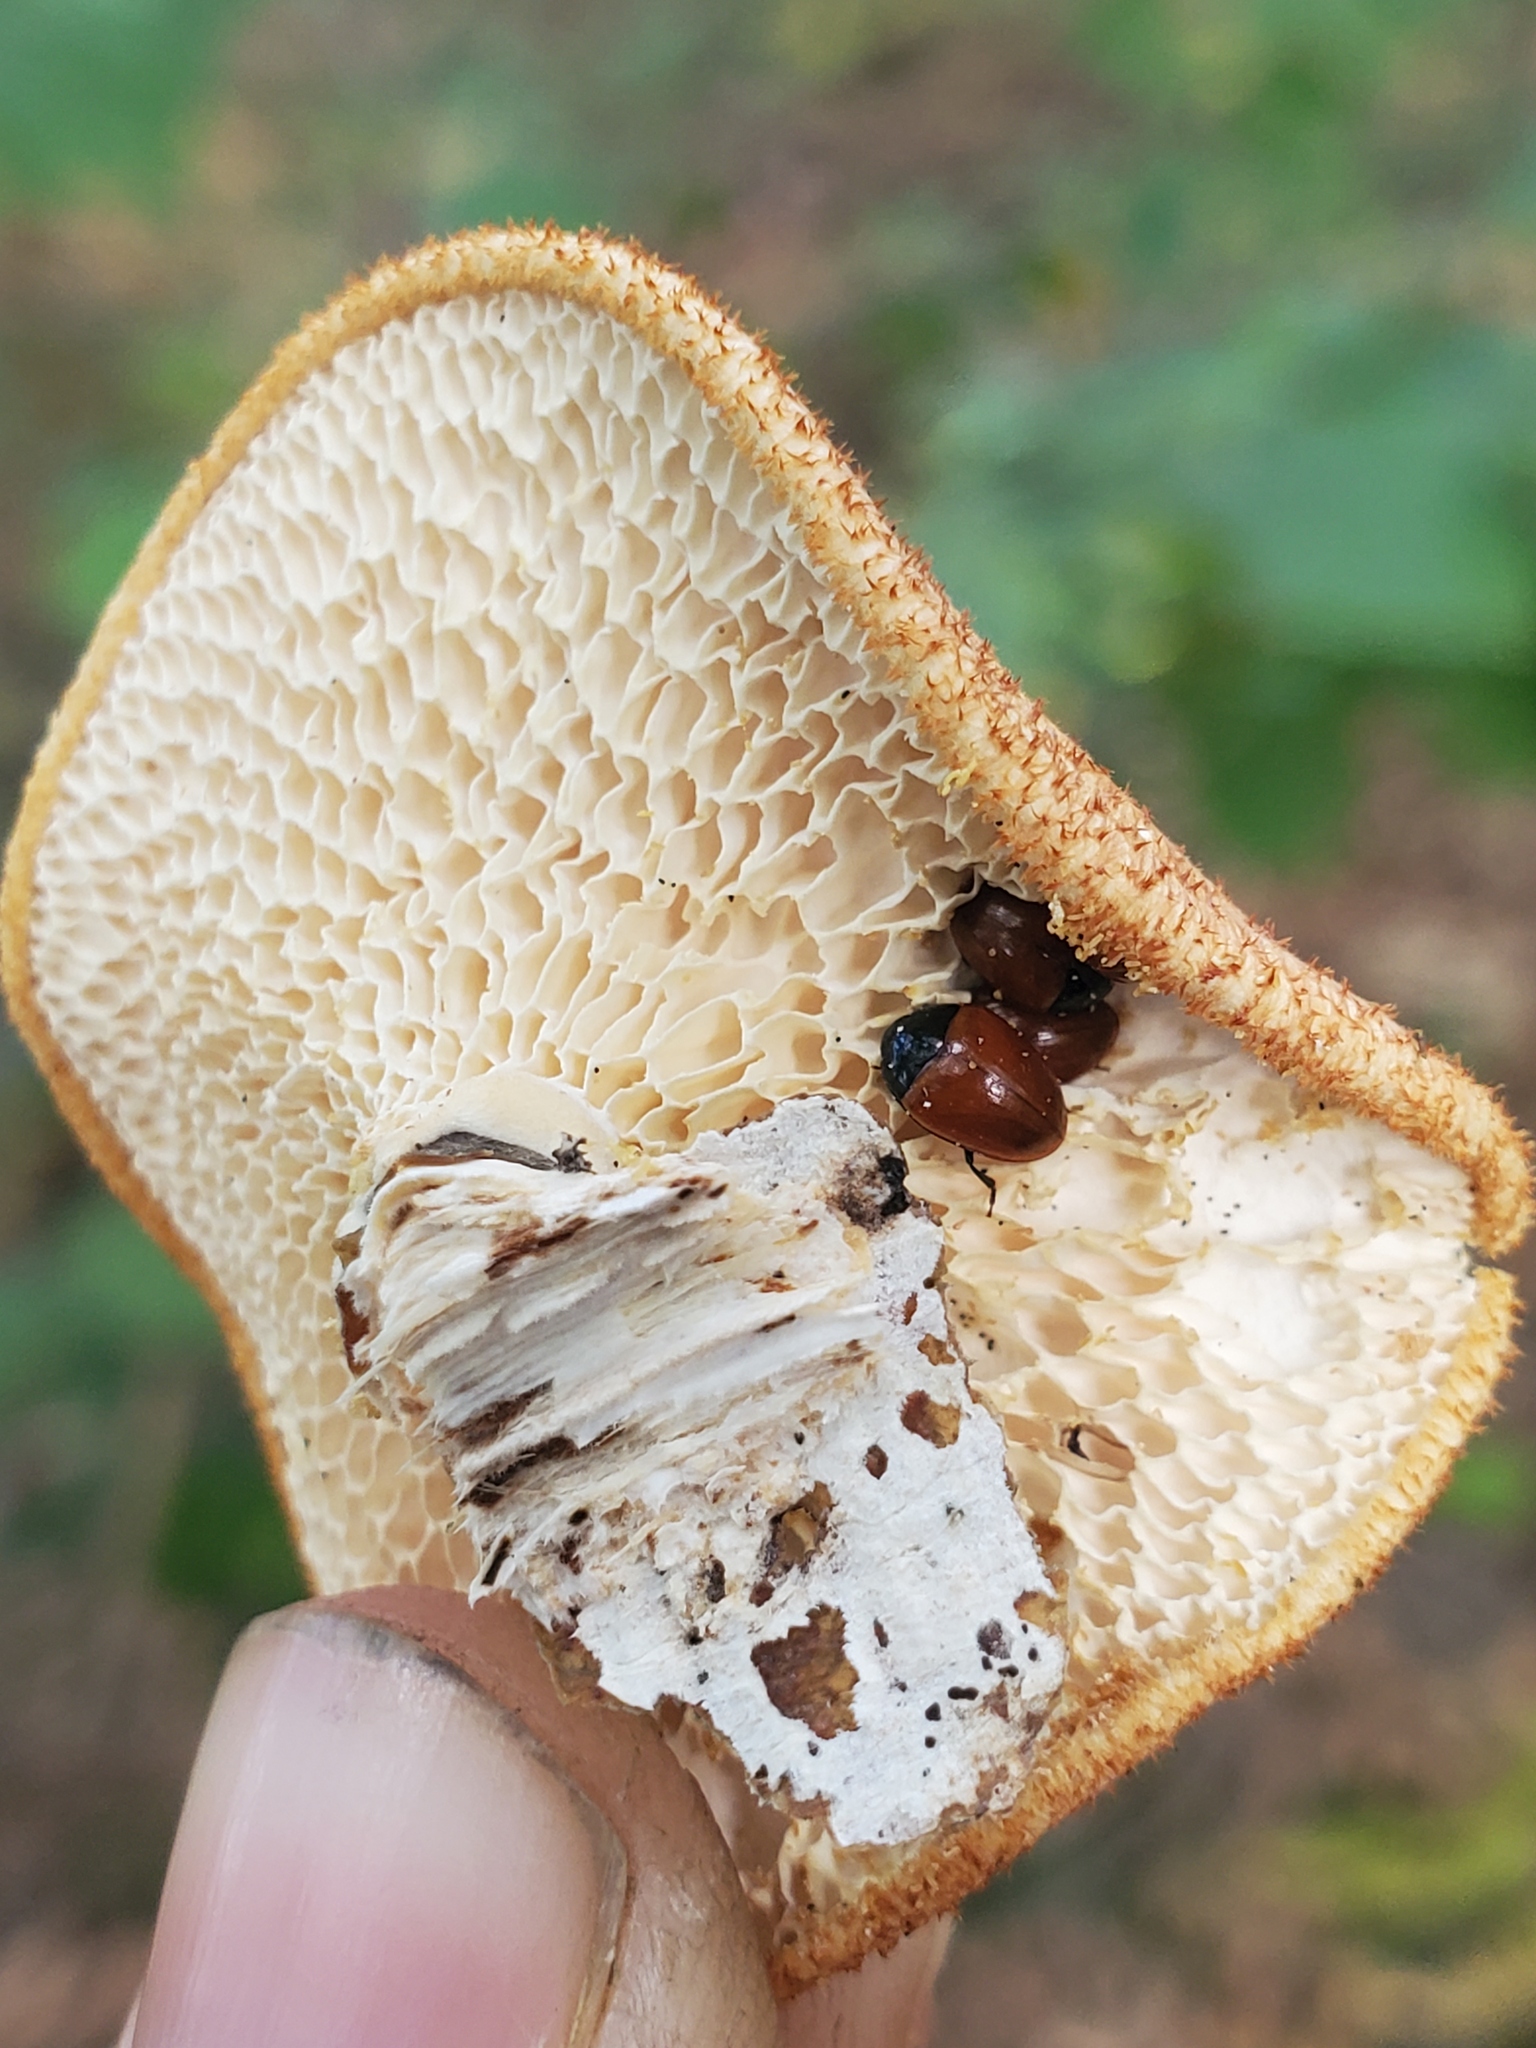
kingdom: Animalia
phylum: Arthropoda
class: Insecta
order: Coleoptera
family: Erotylidae
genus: Tritoma
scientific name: Tritoma sanguinipennis
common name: Red-winged tritoma
